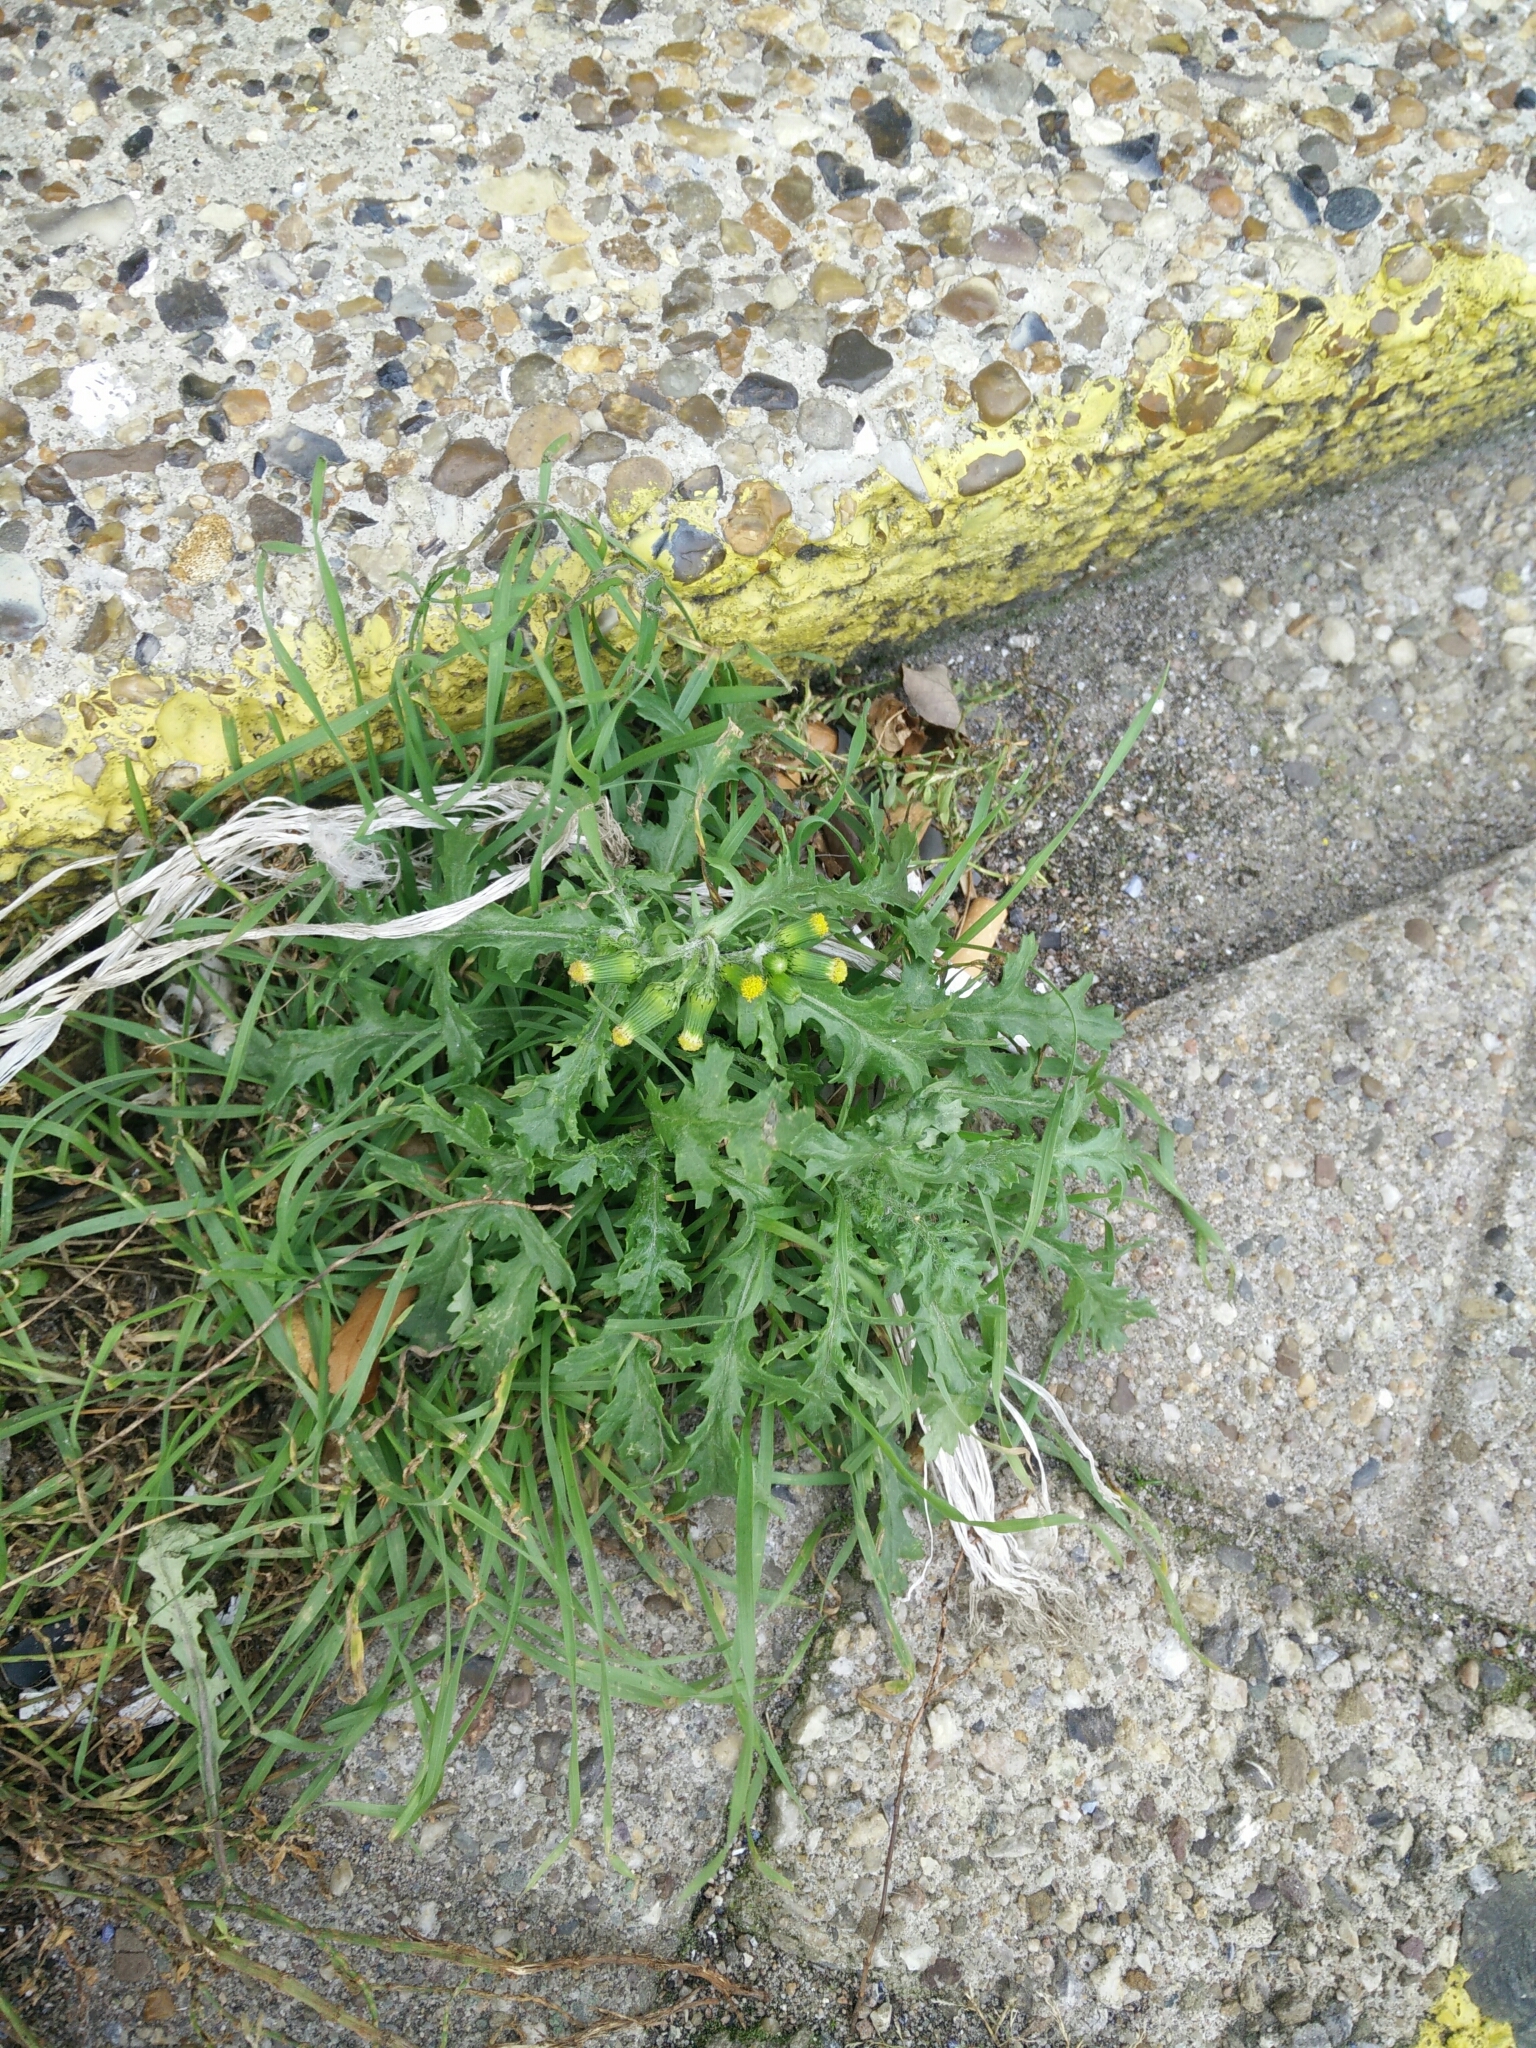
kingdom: Plantae
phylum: Tracheophyta
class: Magnoliopsida
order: Asterales
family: Asteraceae
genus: Senecio
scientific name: Senecio vulgaris
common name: Old-man-in-the-spring
